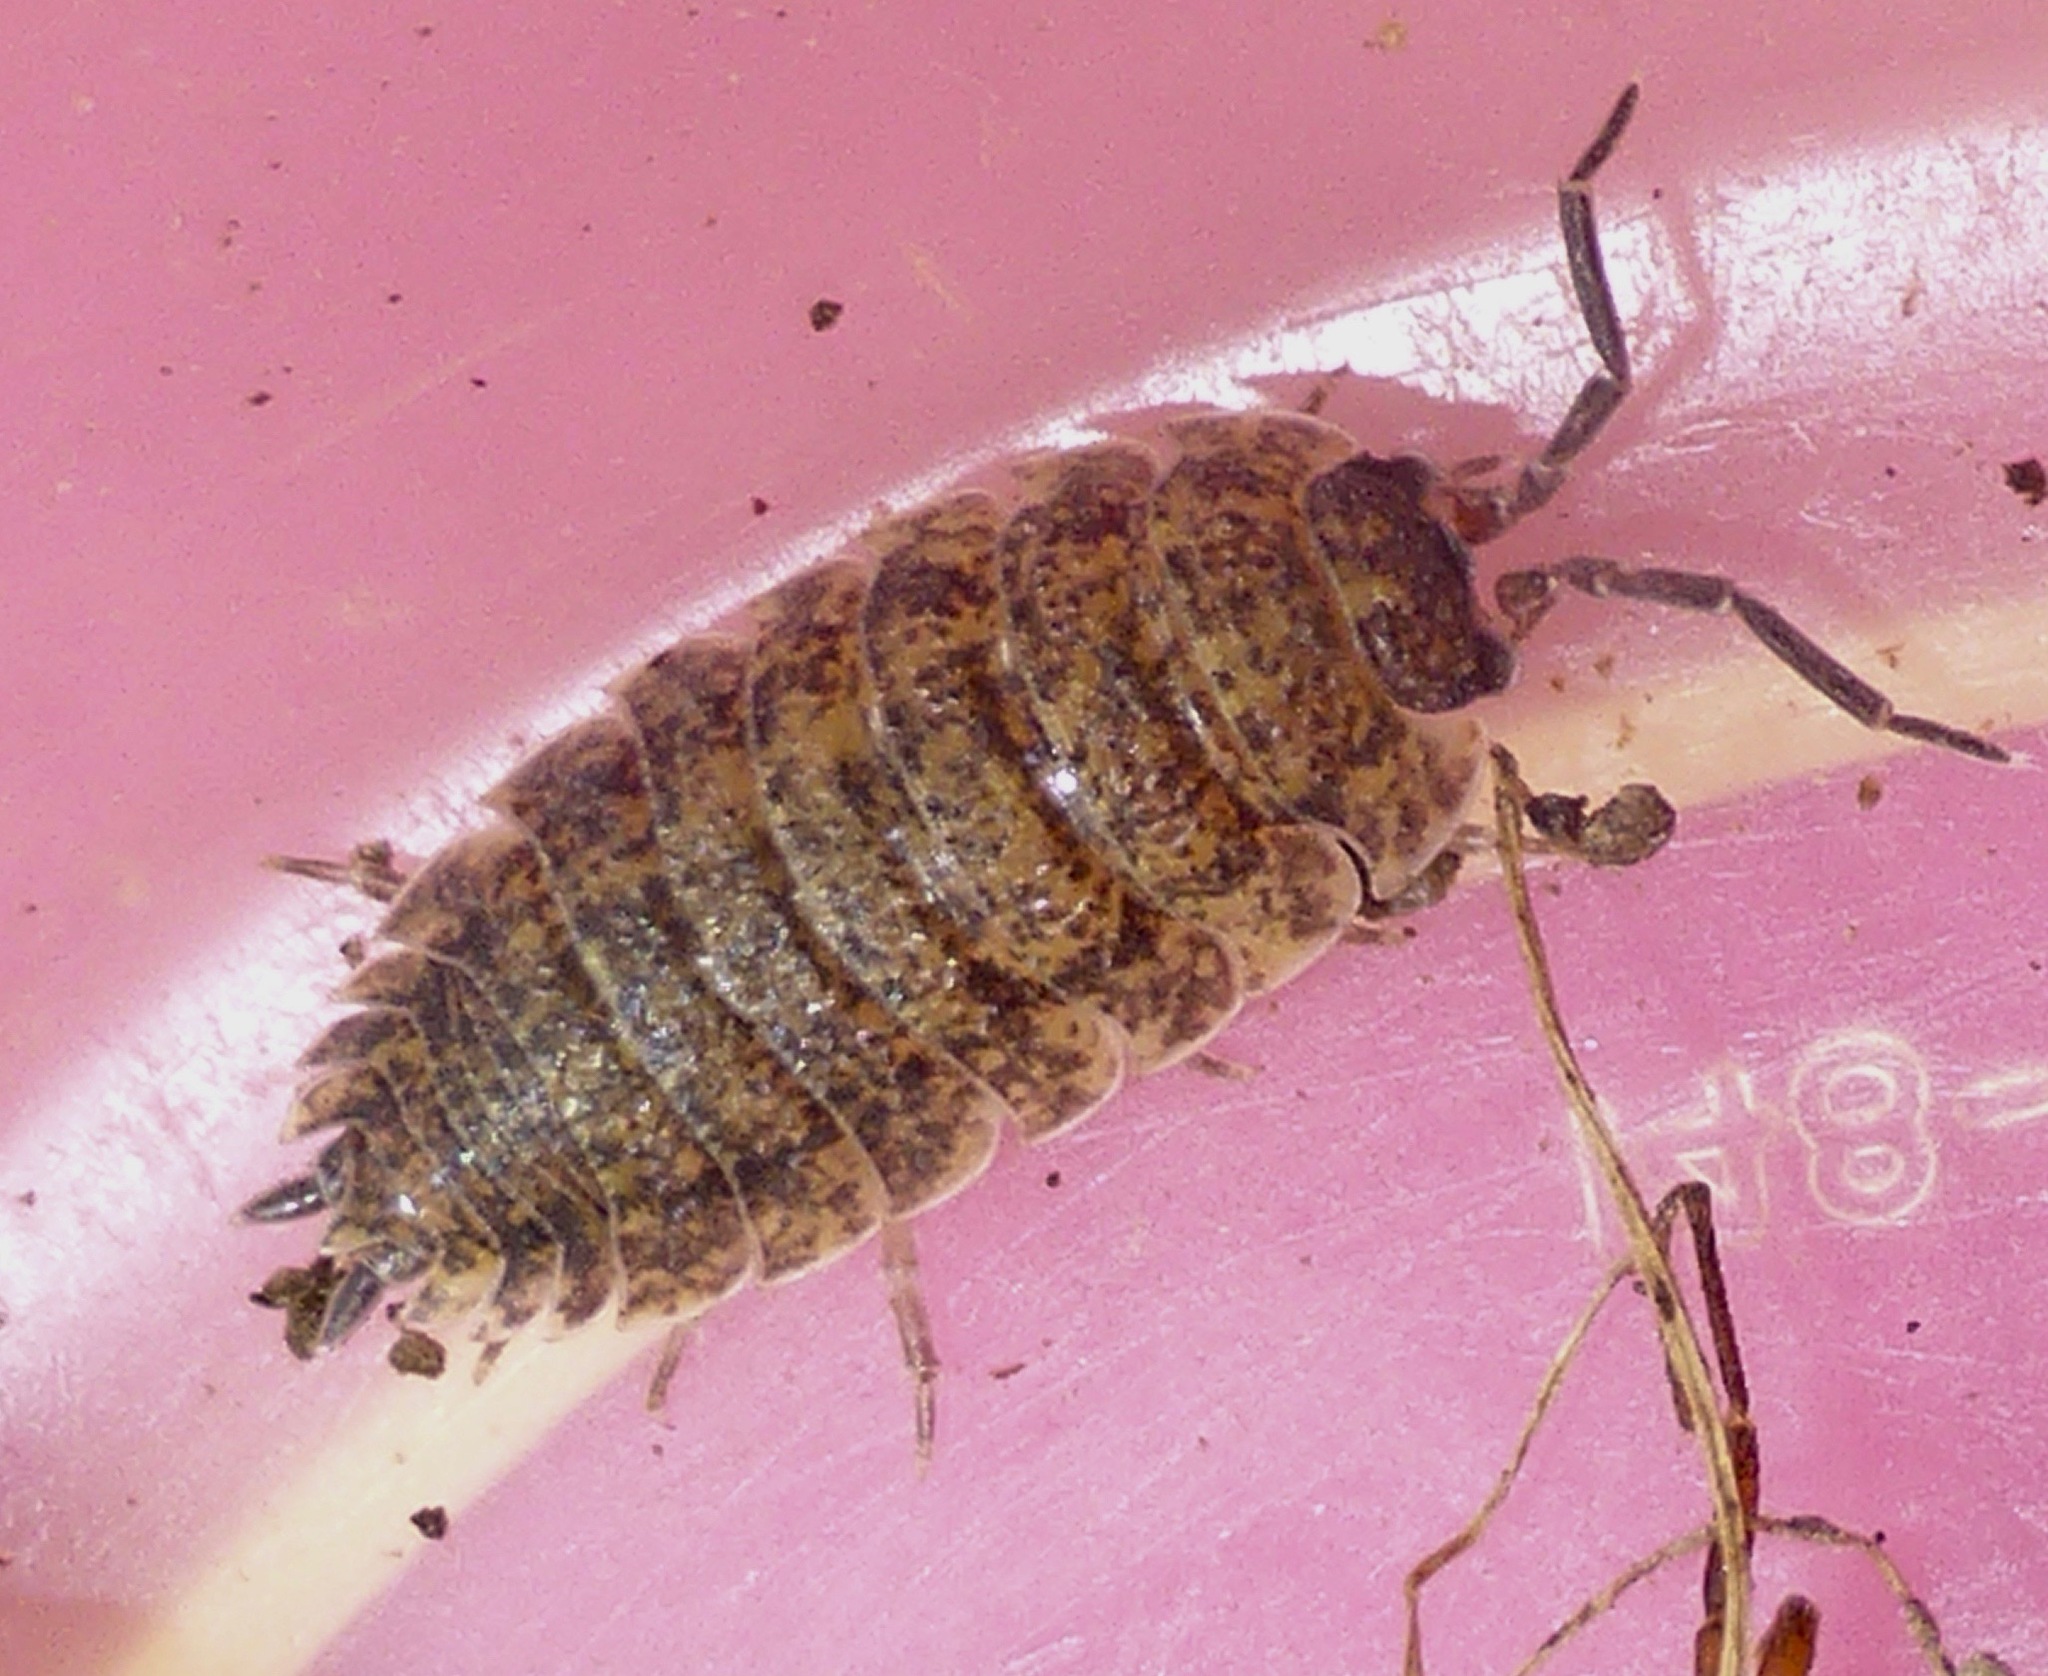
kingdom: Animalia
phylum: Arthropoda
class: Malacostraca
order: Isopoda
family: Porcellionidae
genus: Porcellio
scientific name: Porcellio scaber
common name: Common rough woodlouse
